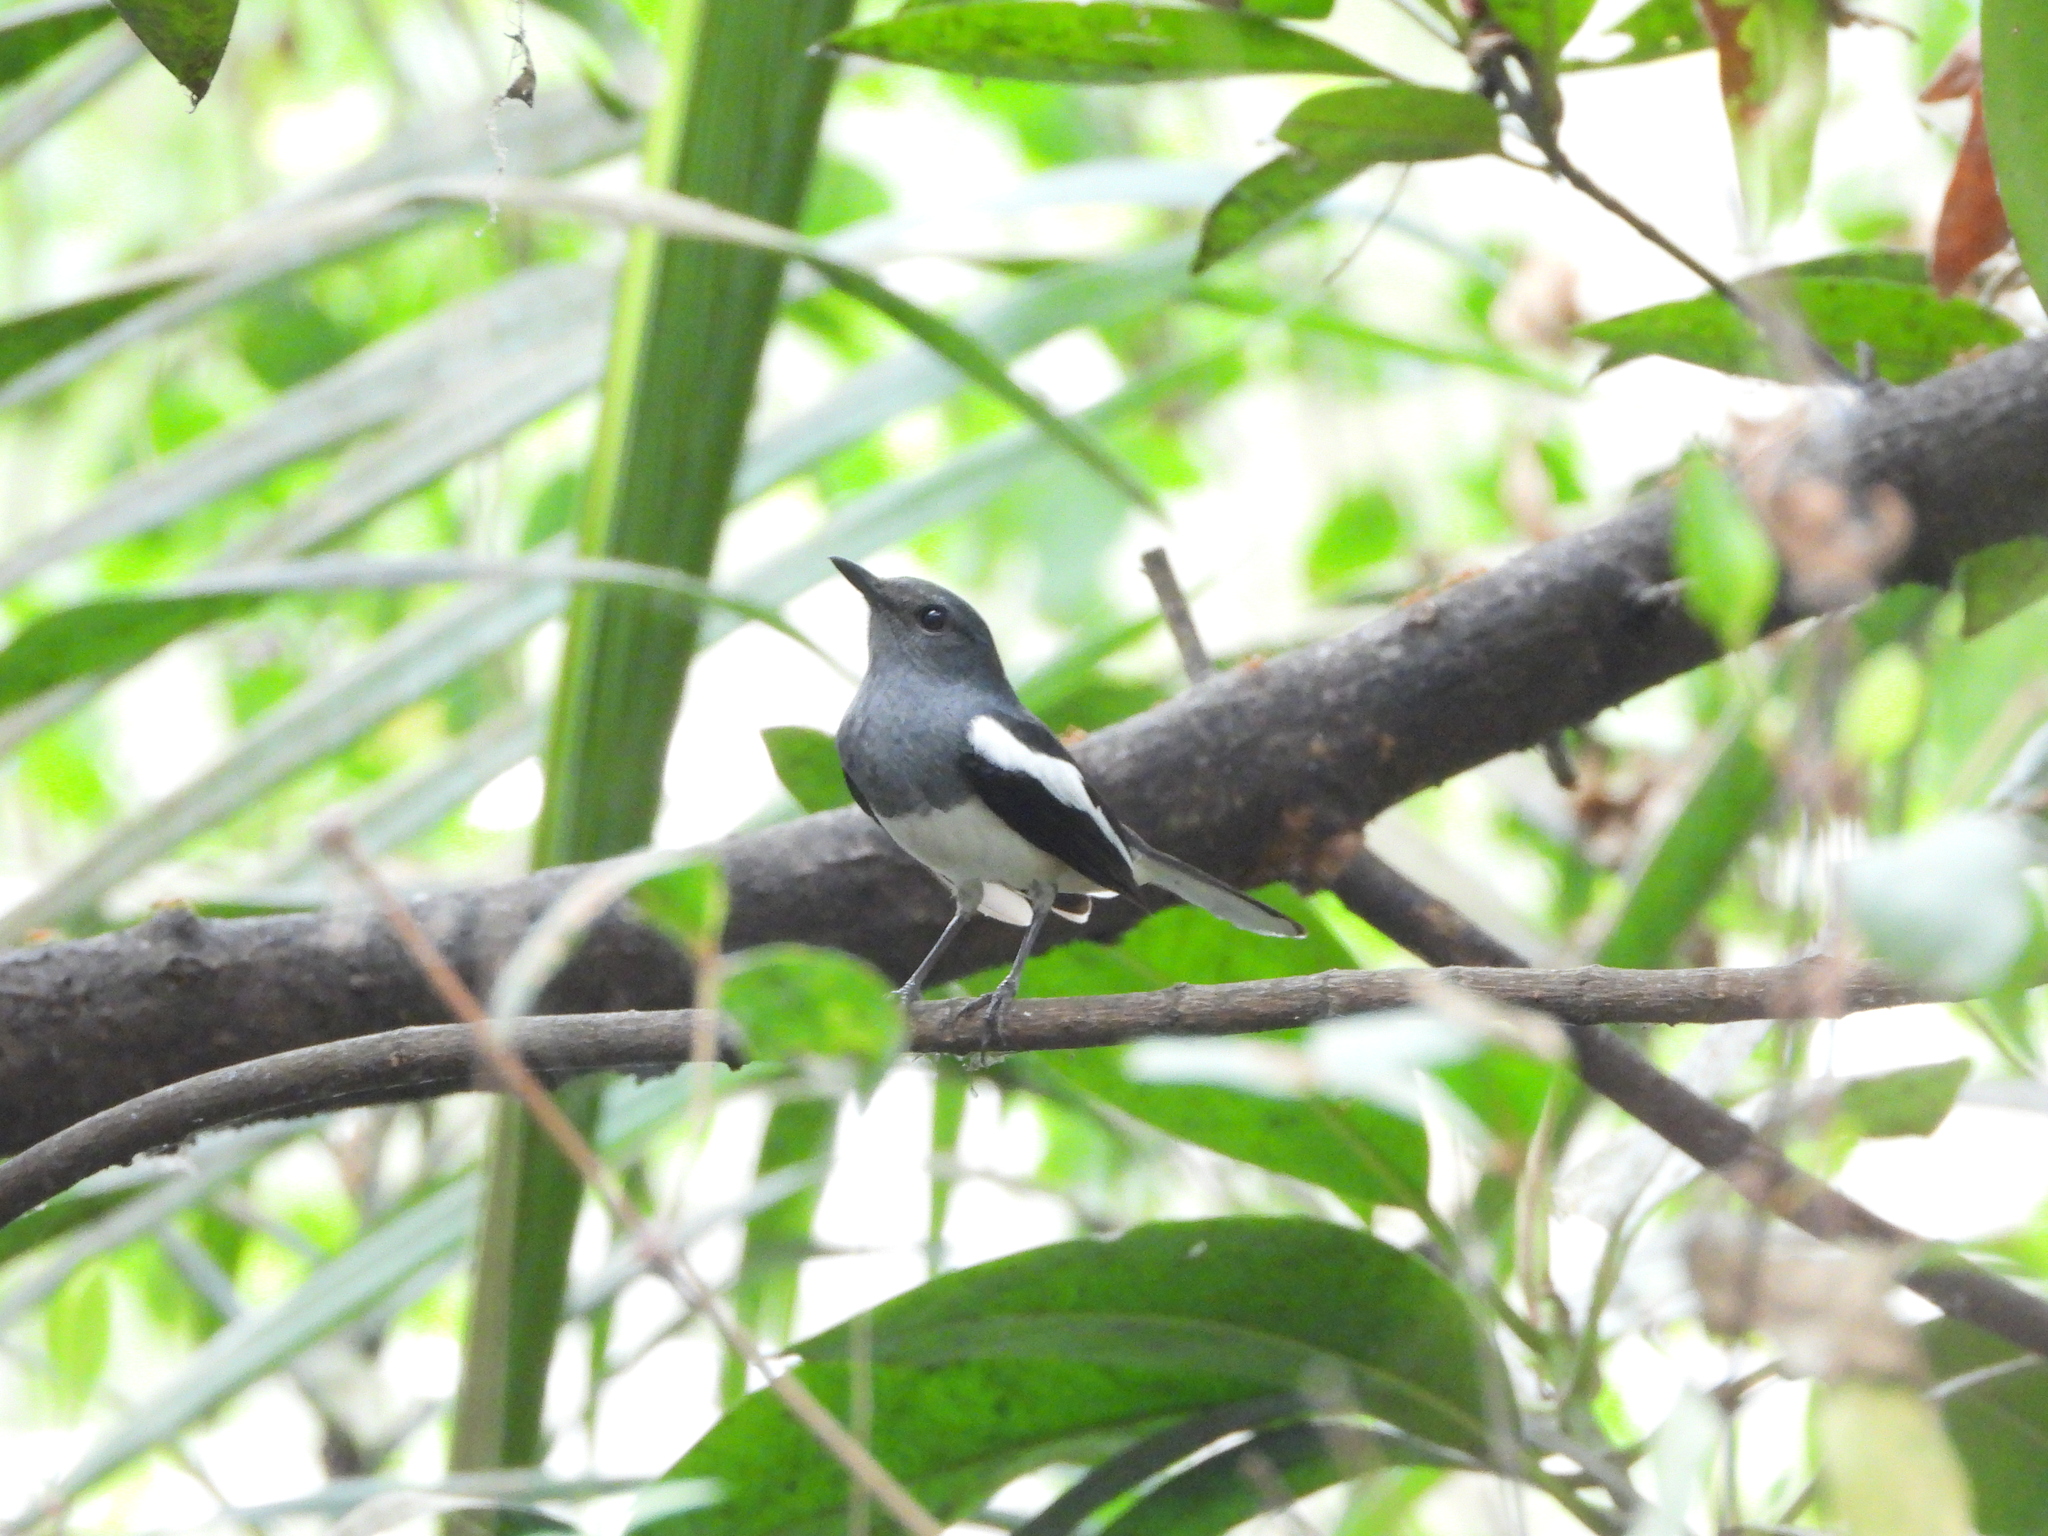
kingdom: Animalia
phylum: Chordata
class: Aves
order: Passeriformes
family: Muscicapidae
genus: Copsychus
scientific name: Copsychus saularis
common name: Oriental magpie-robin
